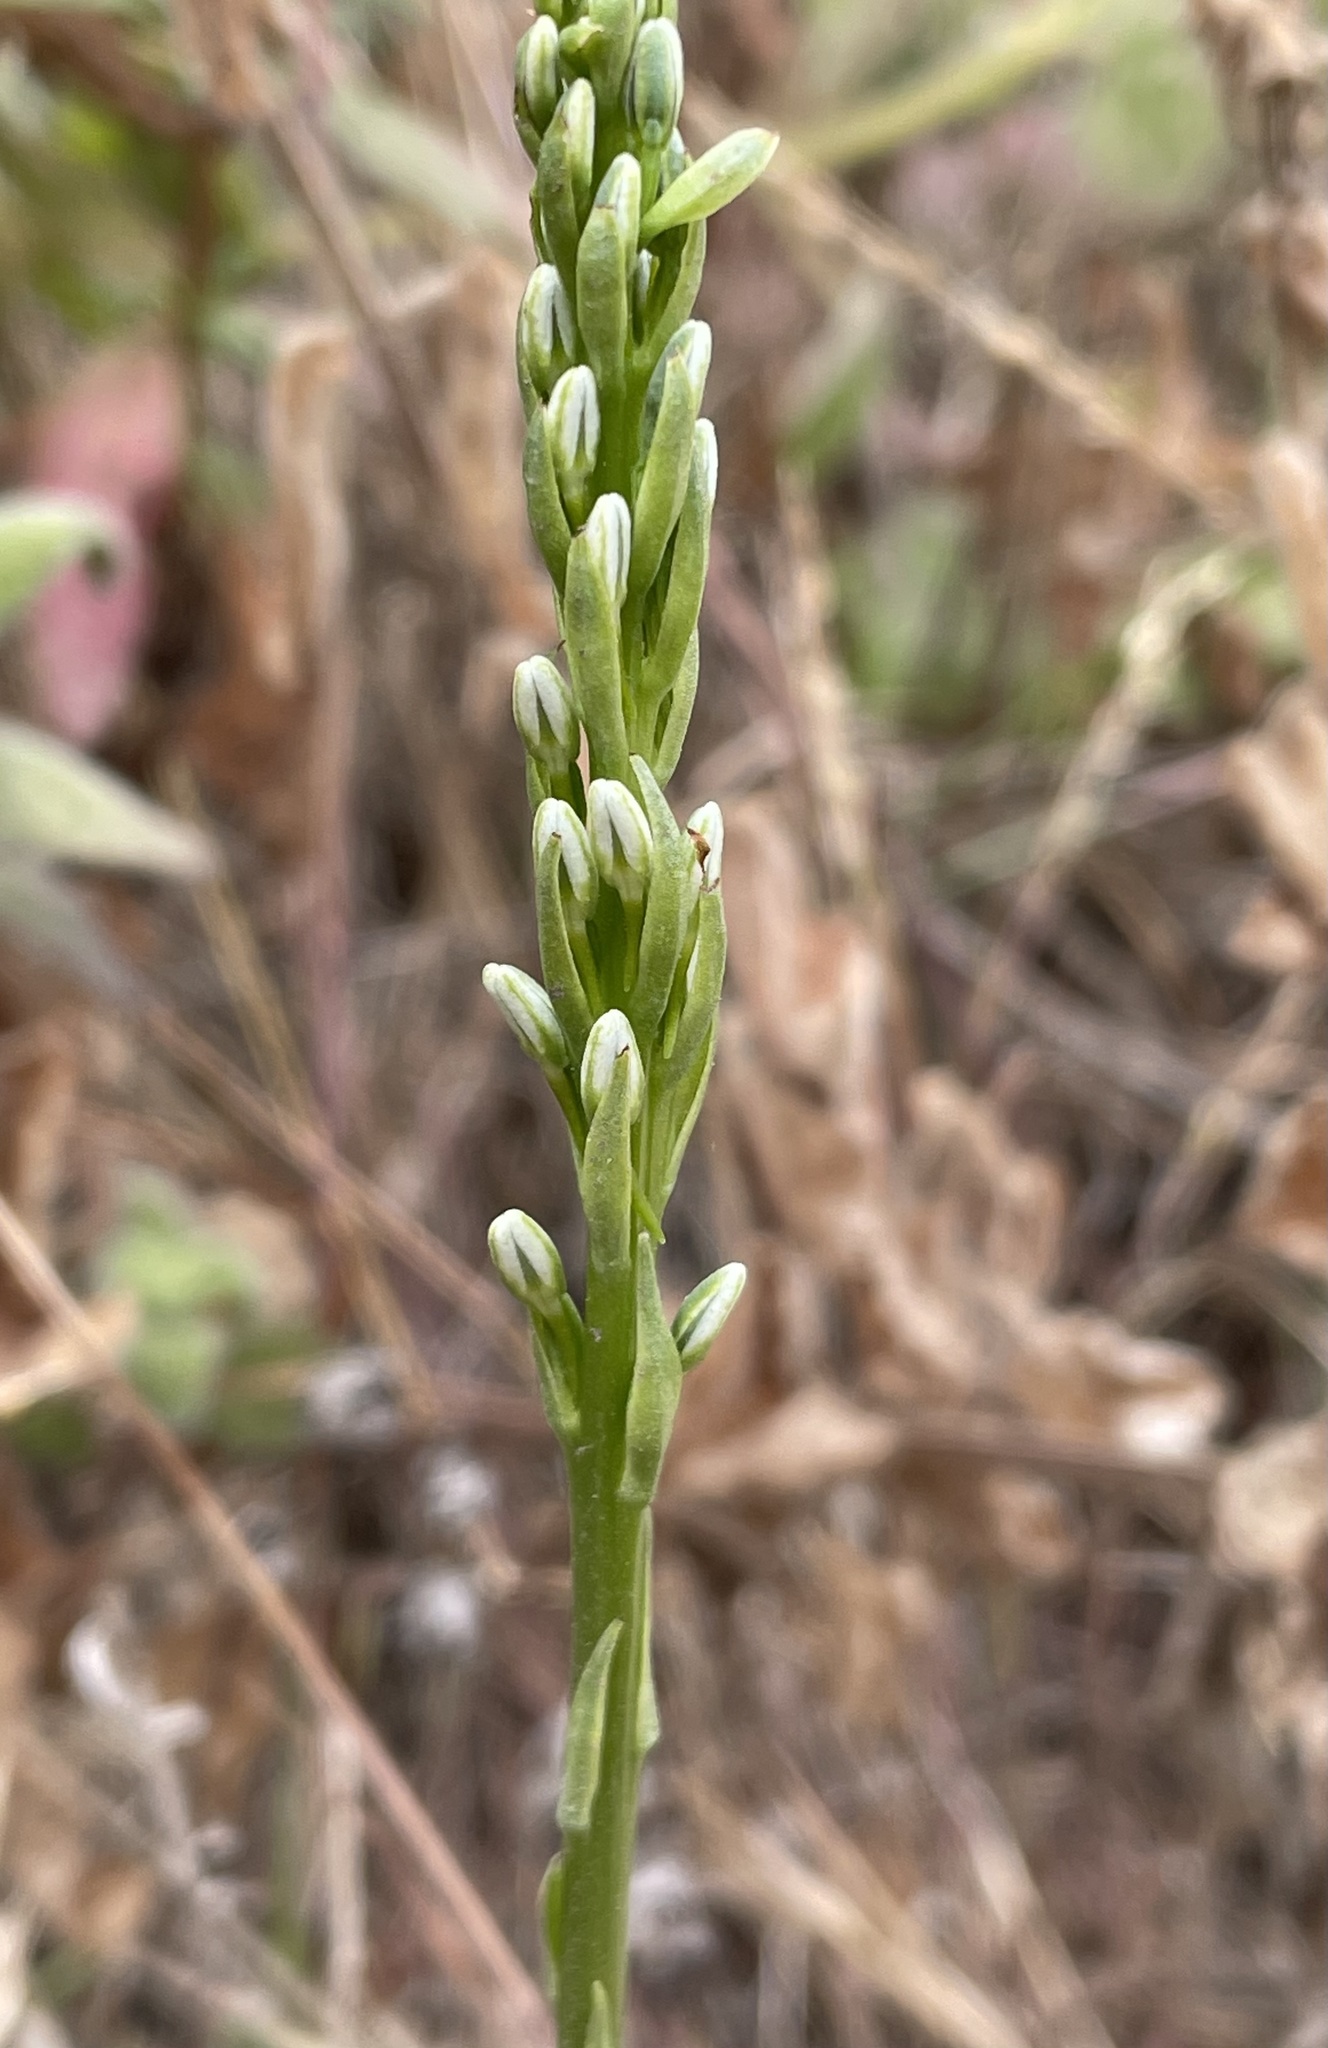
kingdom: Plantae
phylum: Tracheophyta
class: Liliopsida
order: Asparagales
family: Orchidaceae
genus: Platanthera
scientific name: Platanthera elegans
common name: Coast piperia
